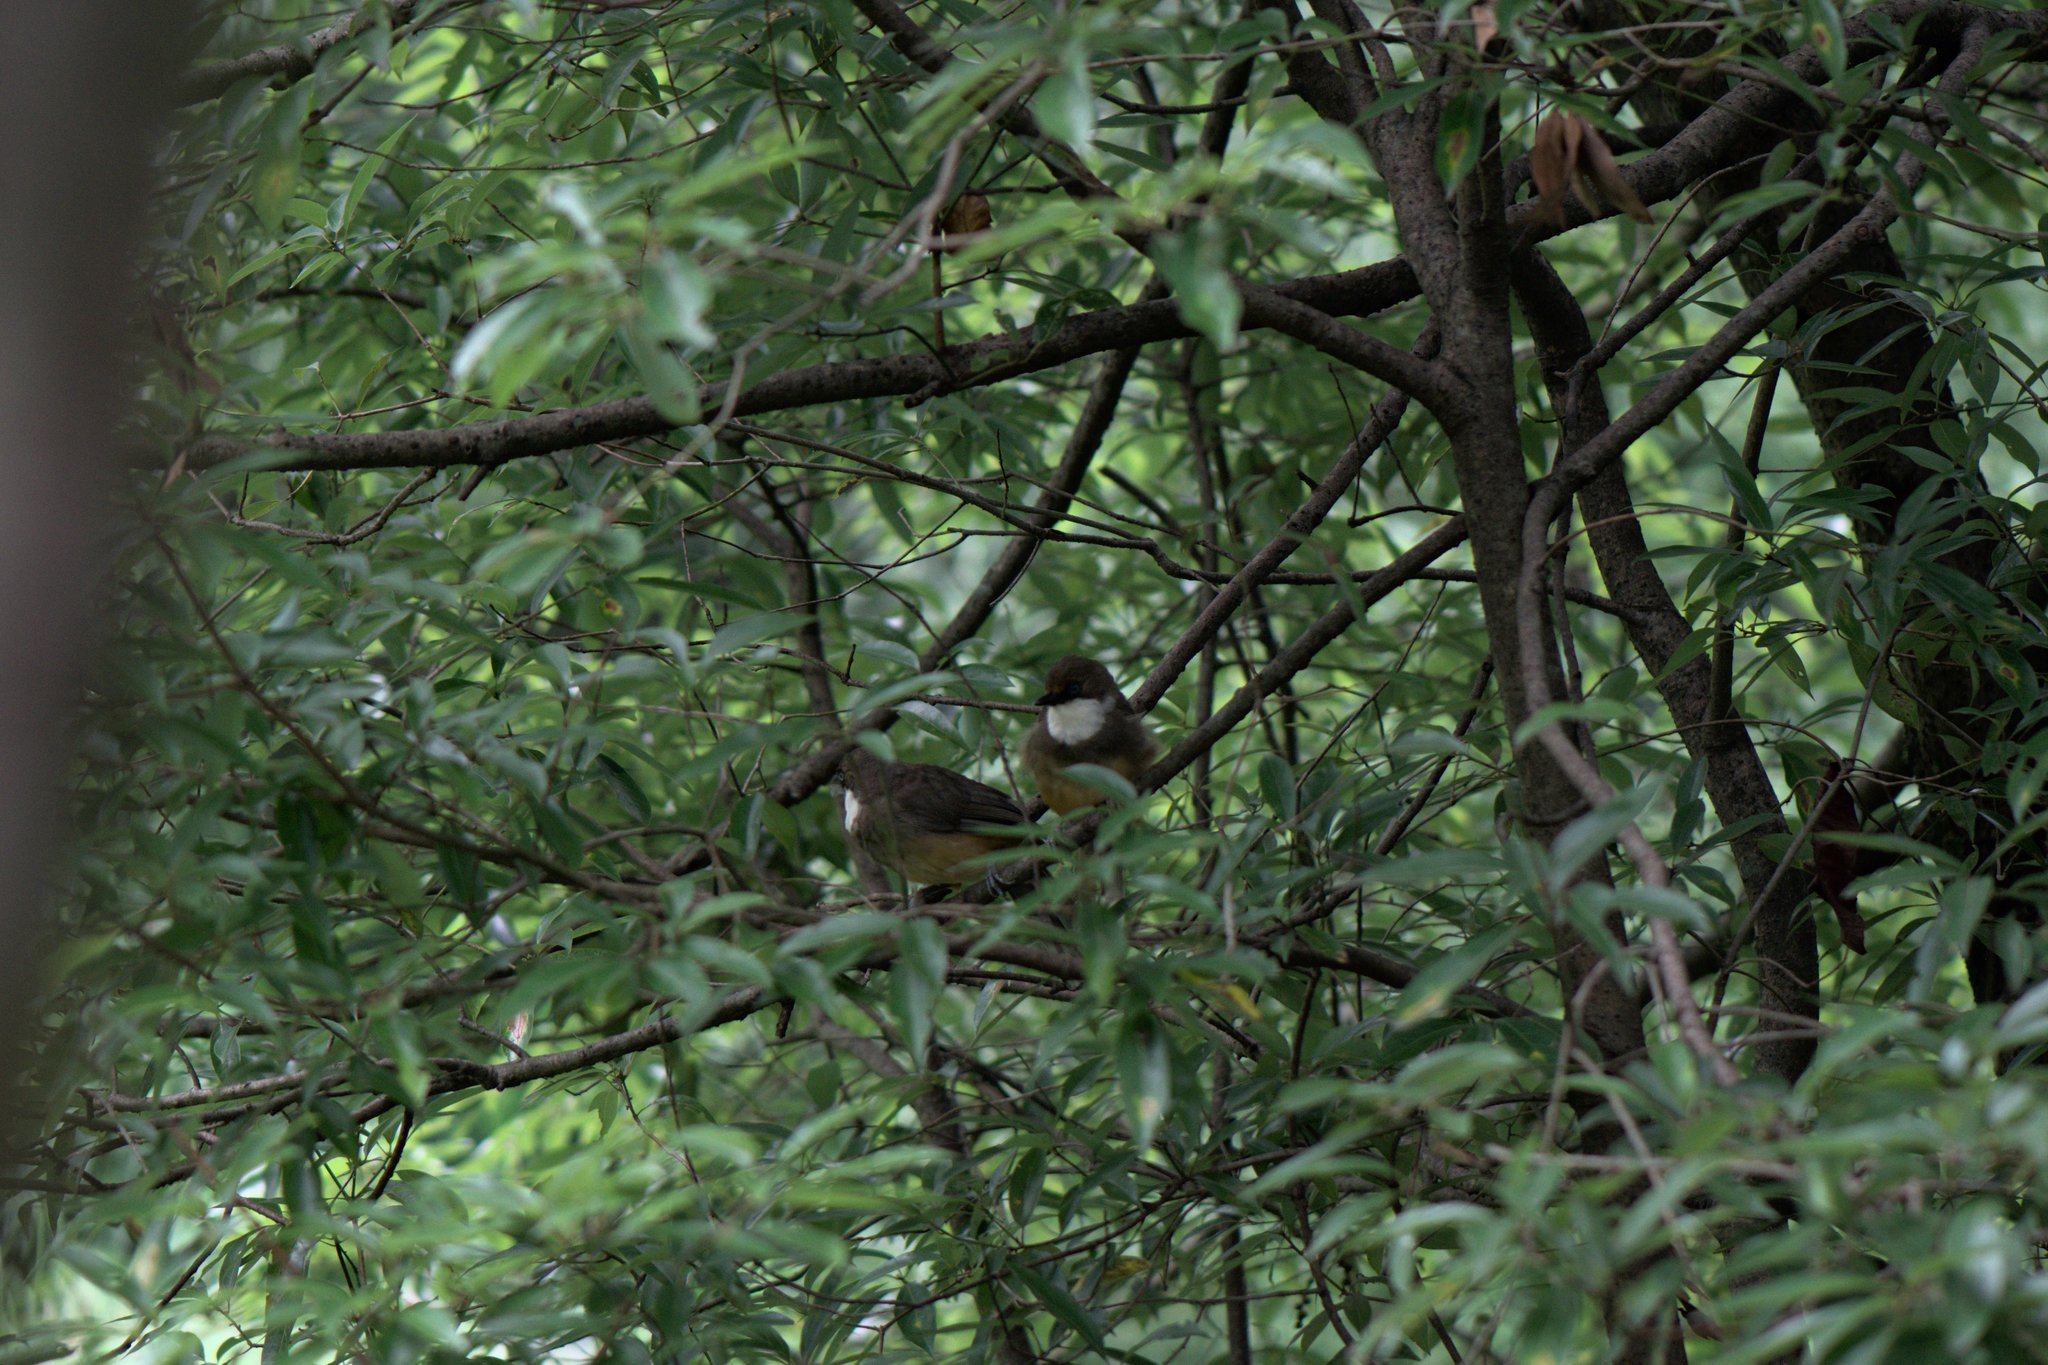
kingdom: Animalia
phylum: Chordata
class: Aves
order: Passeriformes
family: Leiothrichidae
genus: Garrulax
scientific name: Garrulax albogularis
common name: White-throated laughingthrush
